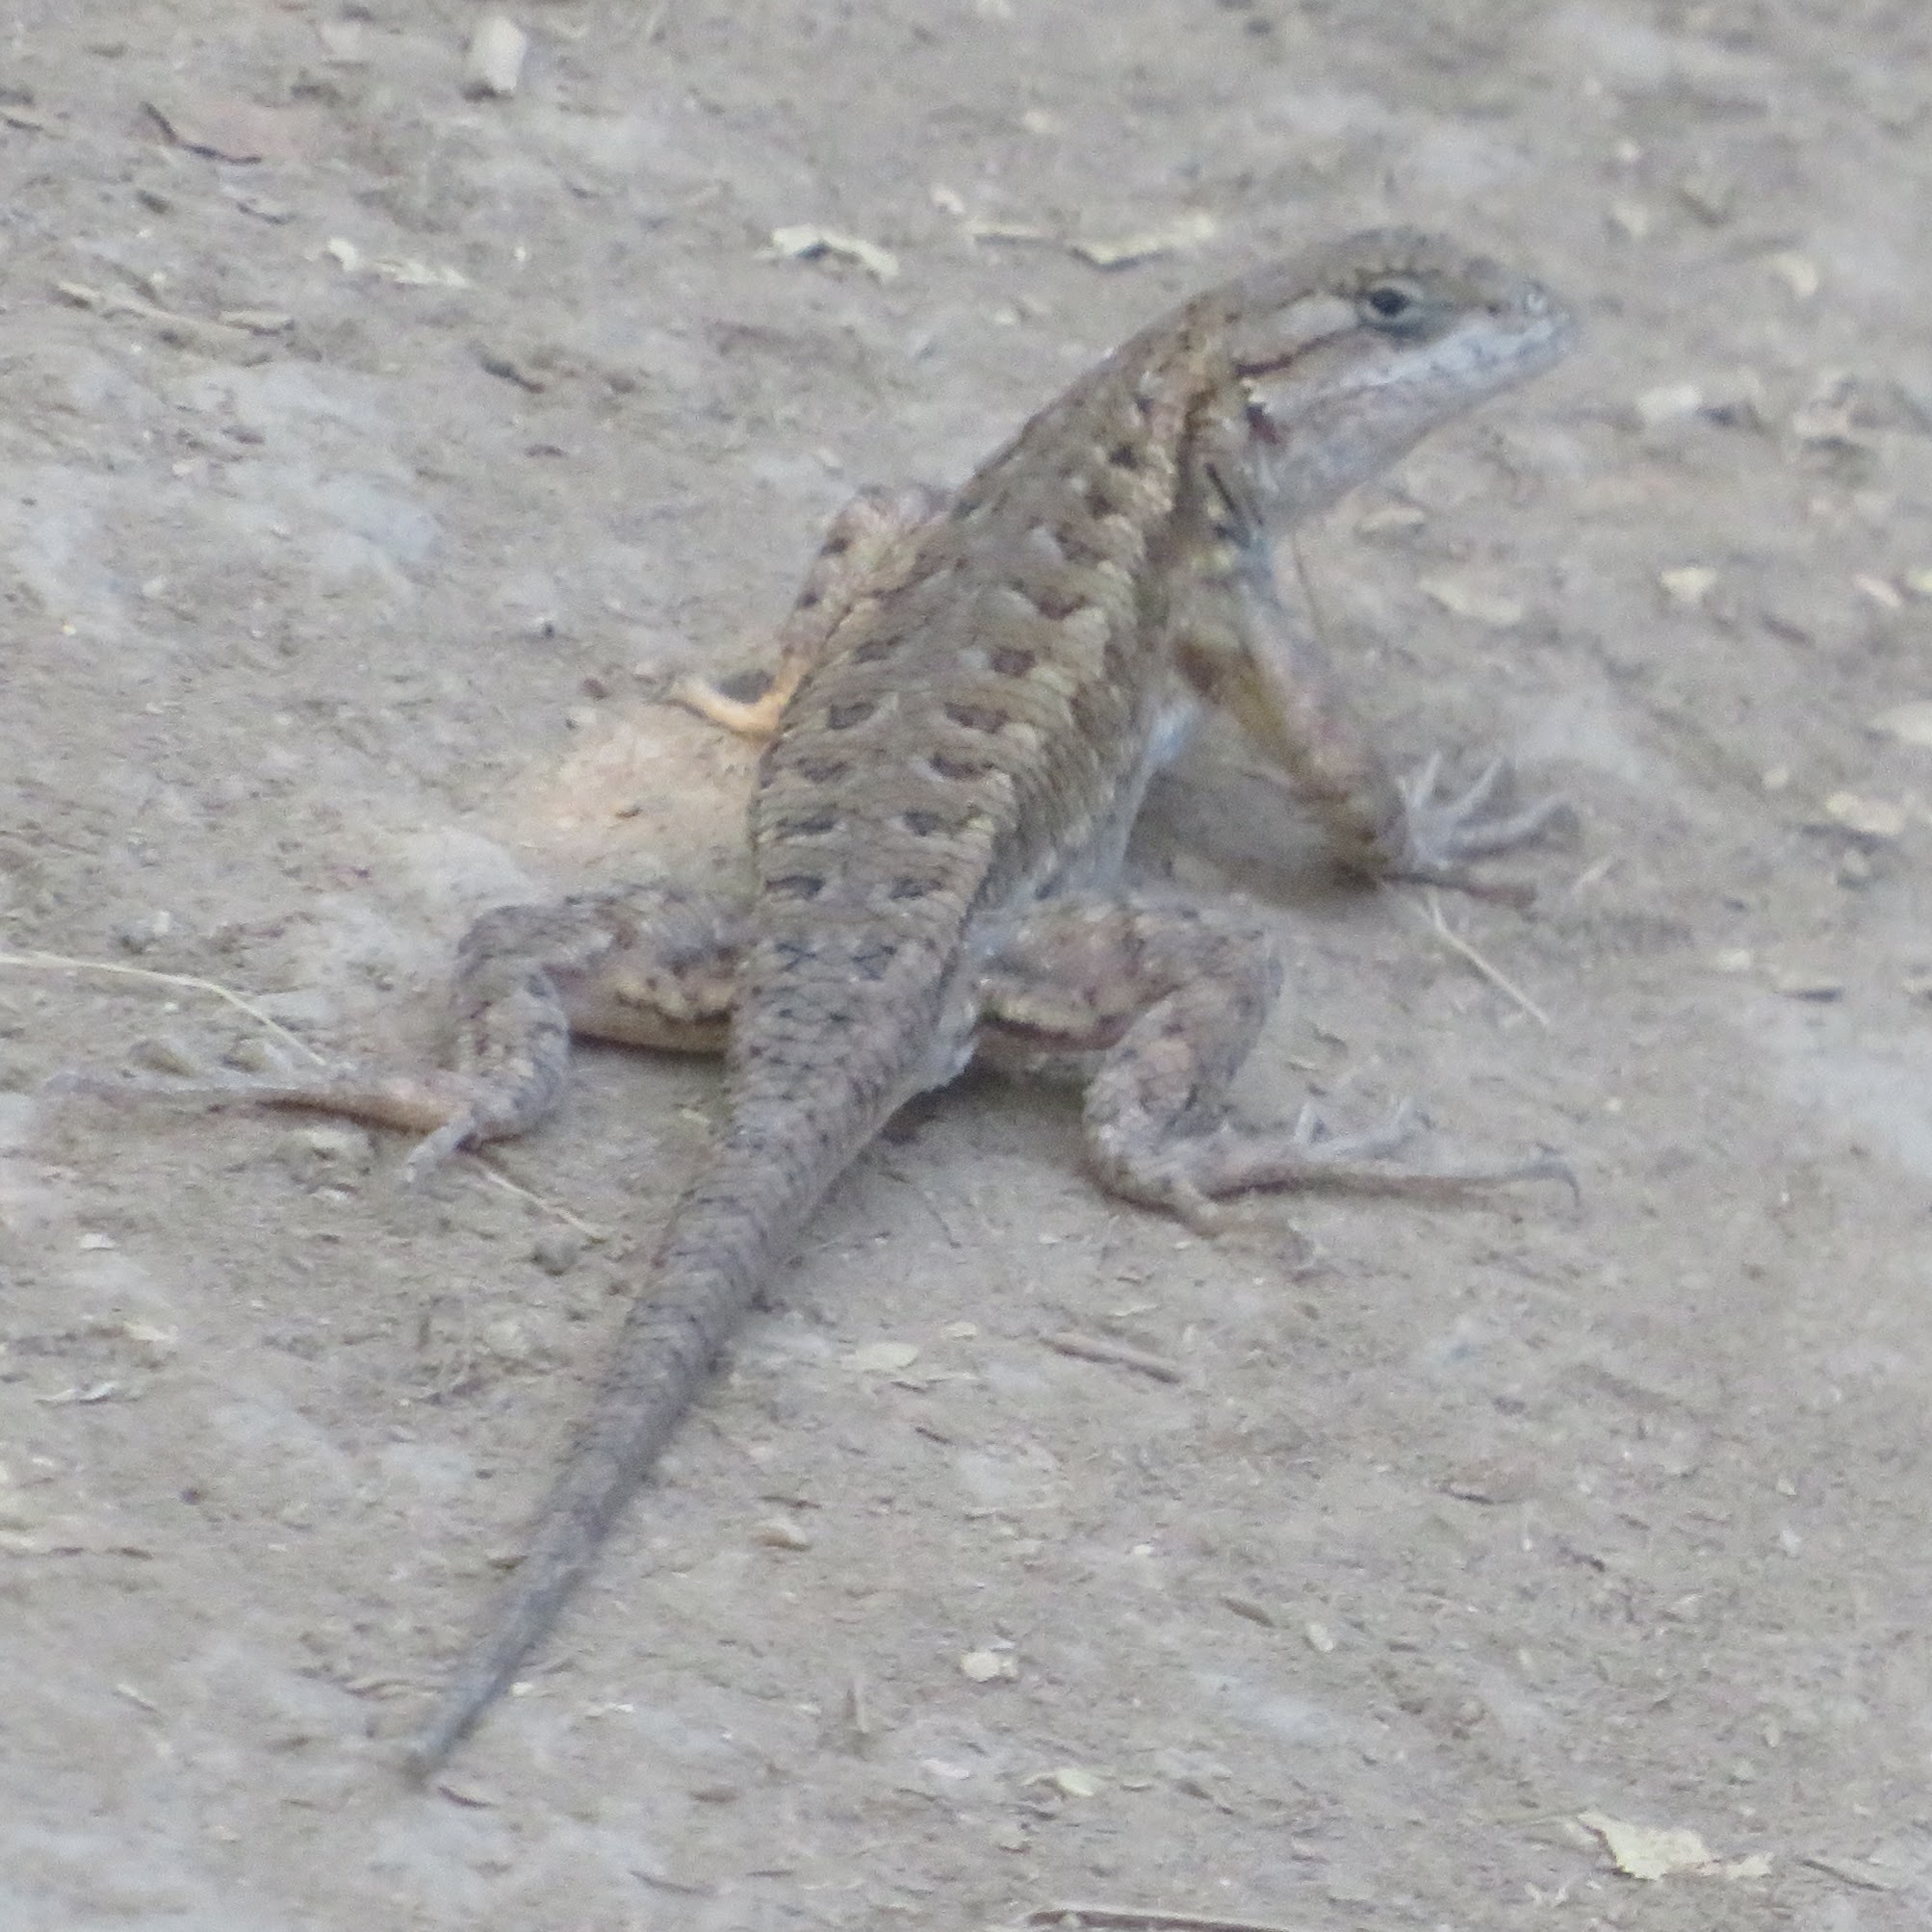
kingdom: Animalia
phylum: Chordata
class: Squamata
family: Phrynosomatidae
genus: Sceloporus
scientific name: Sceloporus occidentalis
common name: Western fence lizard
